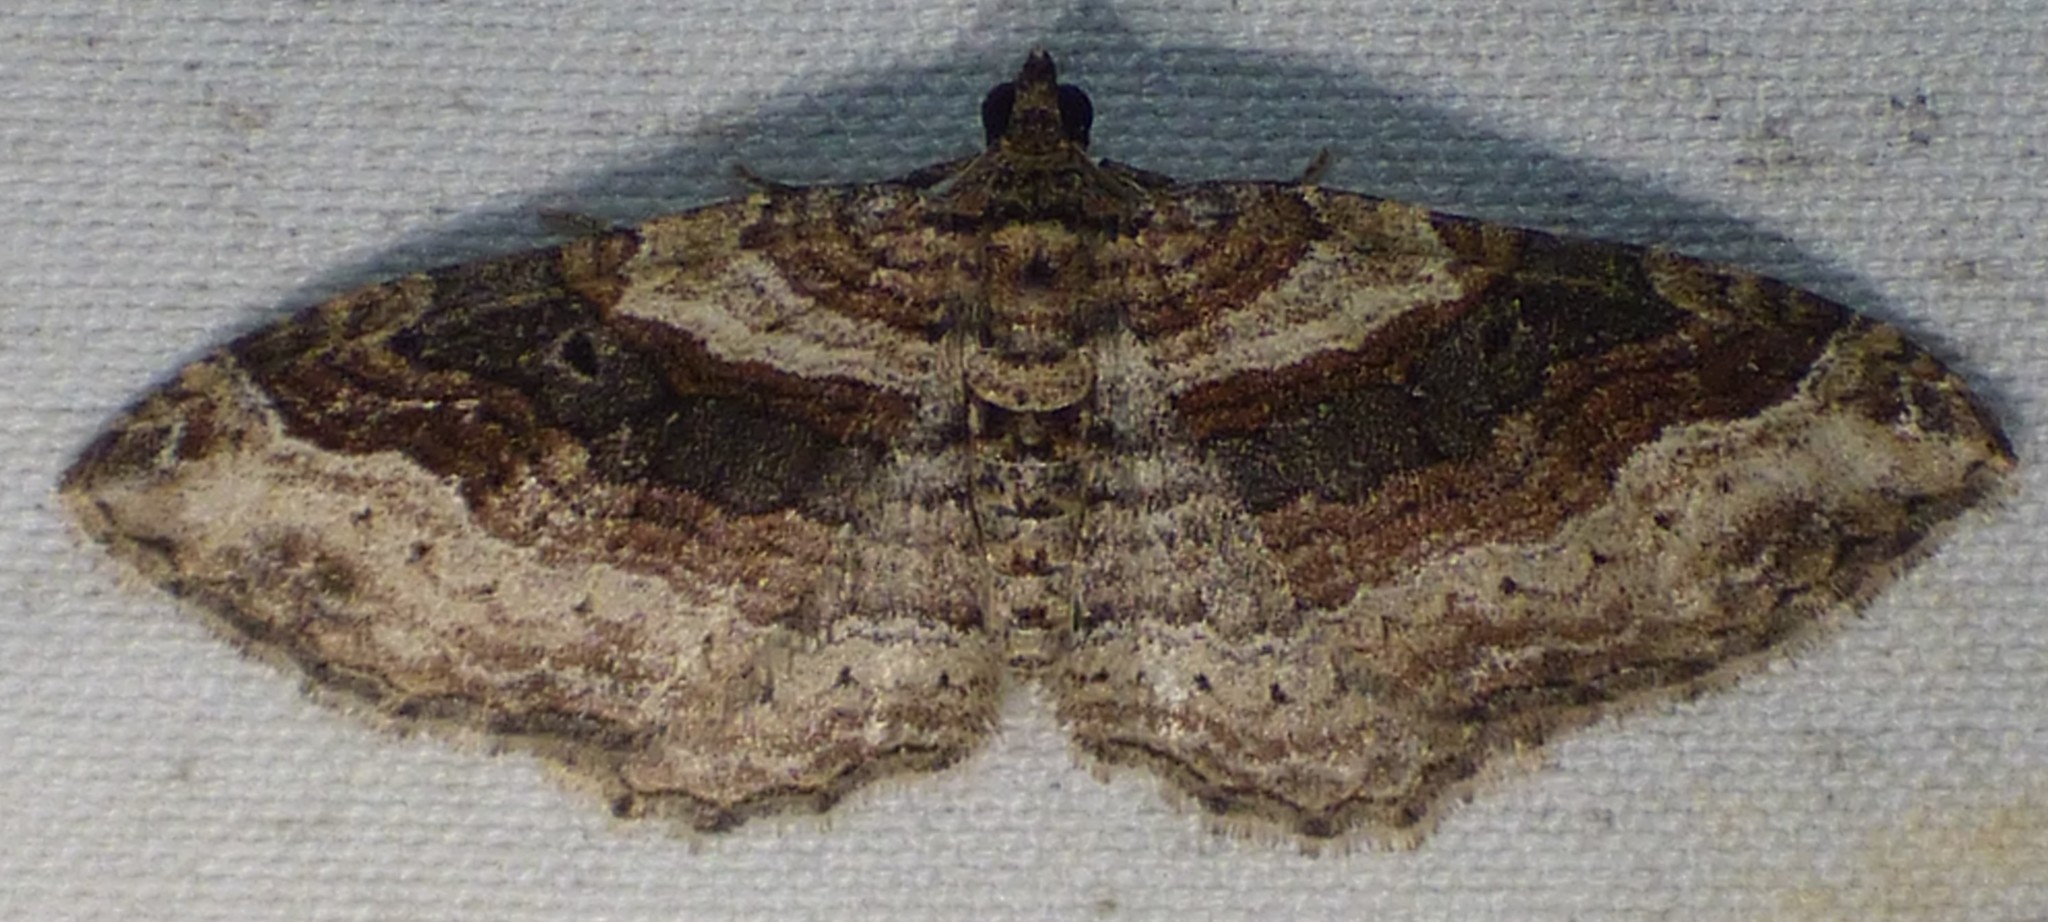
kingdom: Animalia
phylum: Arthropoda
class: Insecta
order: Lepidoptera
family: Geometridae
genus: Costaconvexa
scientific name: Costaconvexa centrostrigaria
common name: Bent-line carpet
